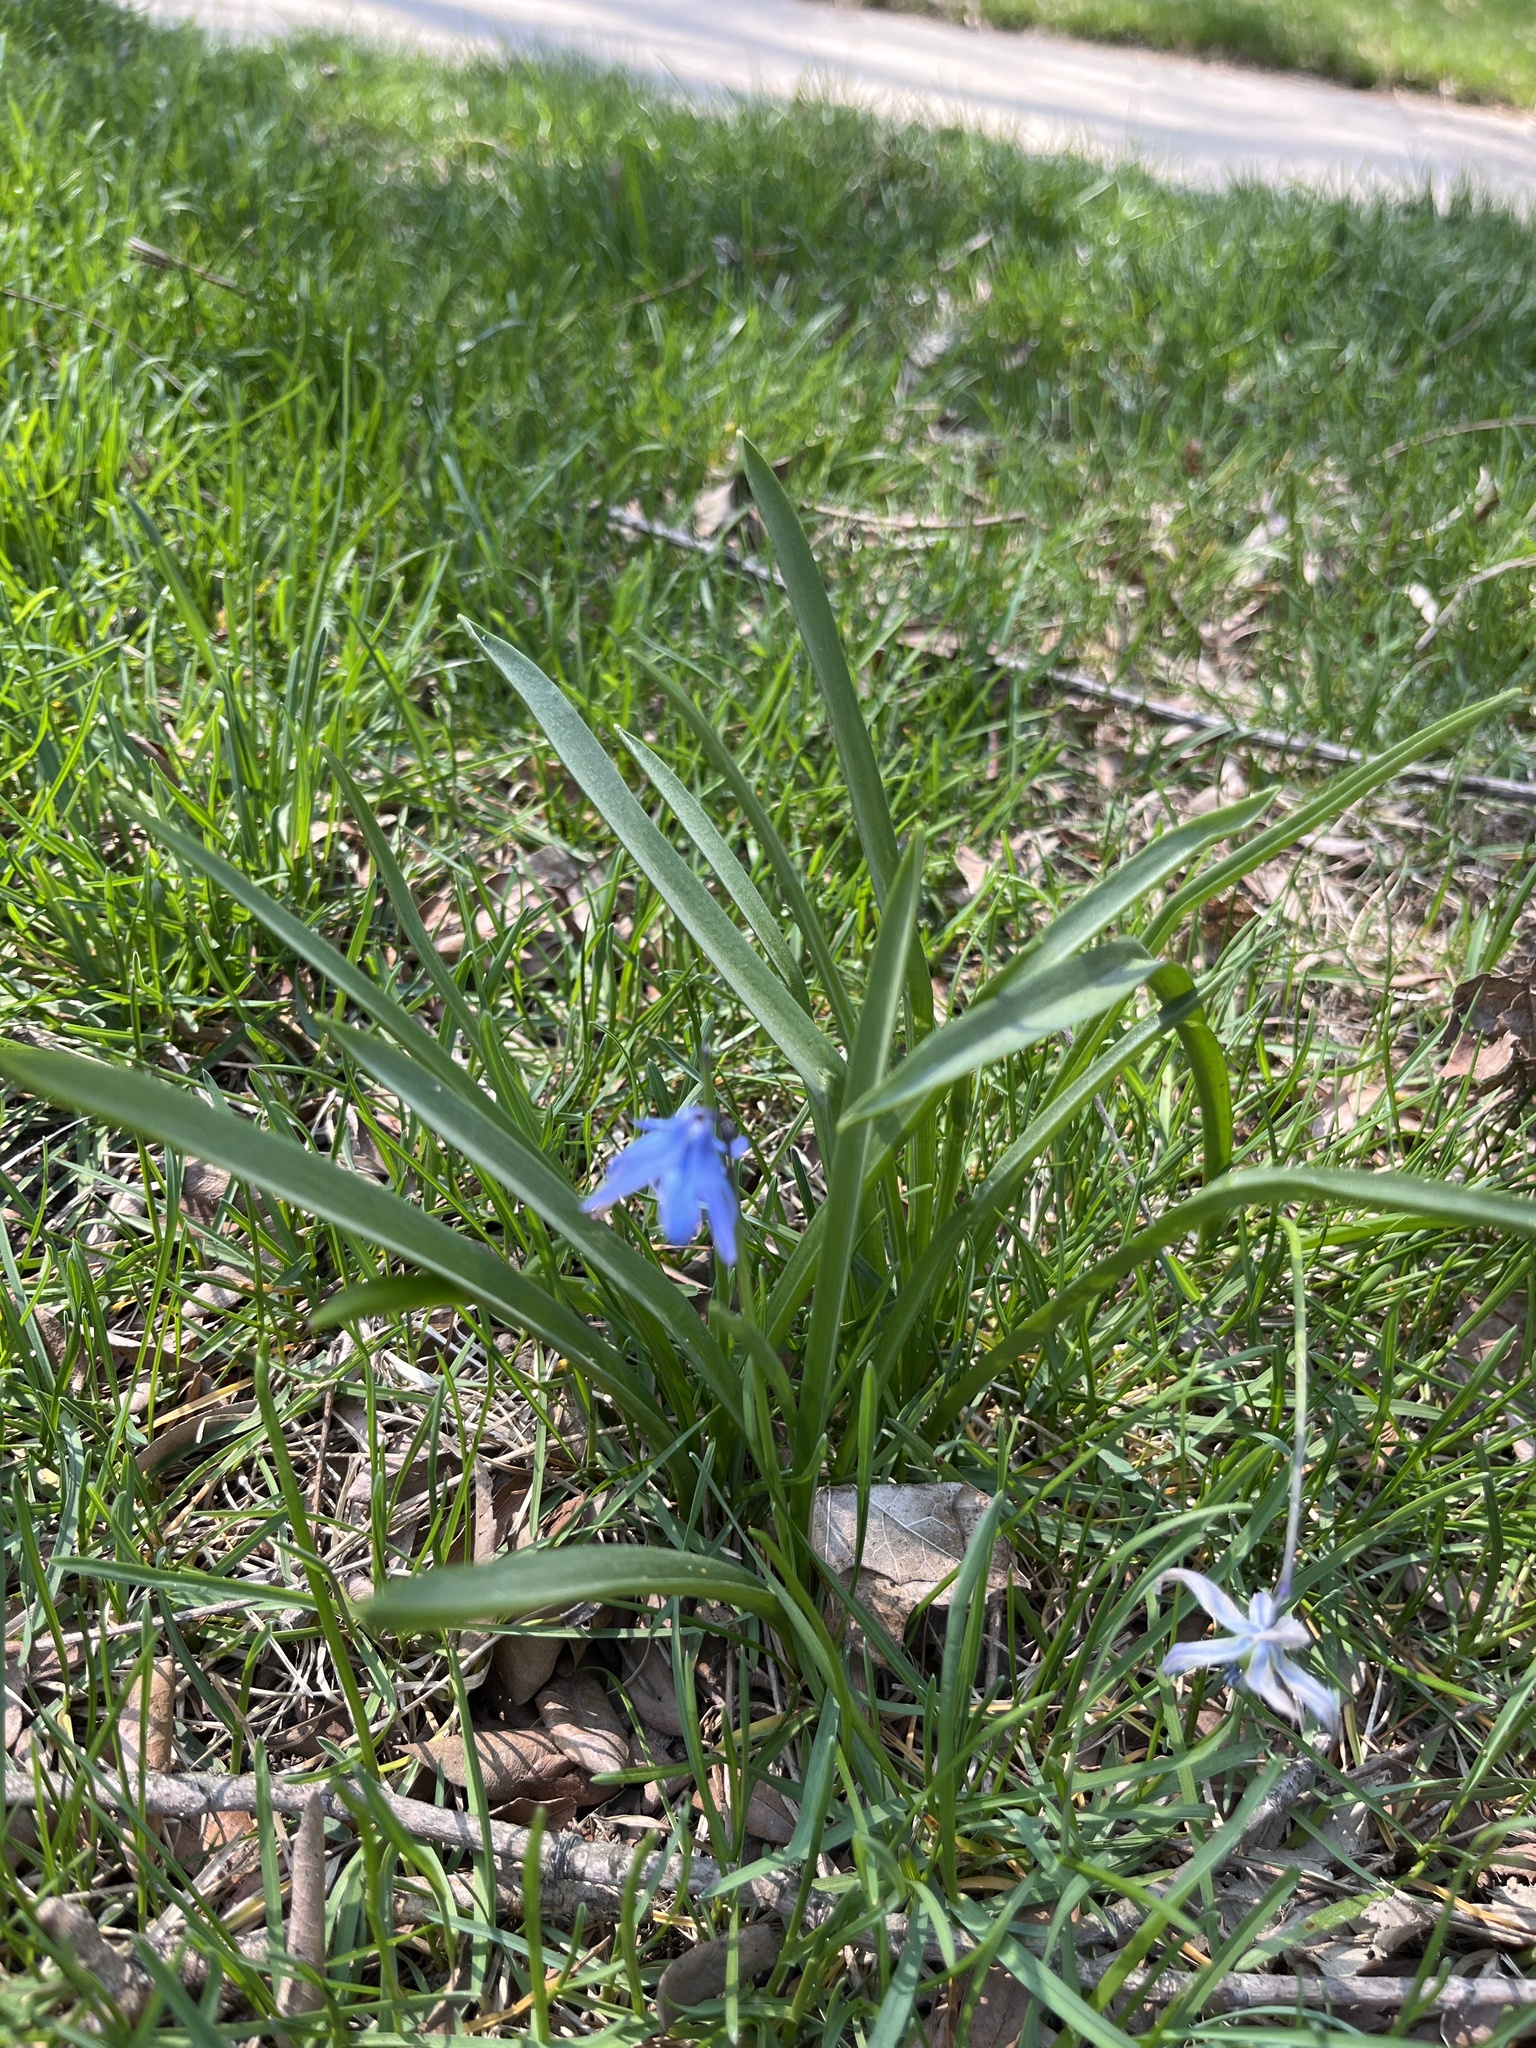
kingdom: Plantae
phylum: Tracheophyta
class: Liliopsida
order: Asparagales
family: Asparagaceae
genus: Scilla
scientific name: Scilla siberica
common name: Siberian squill
